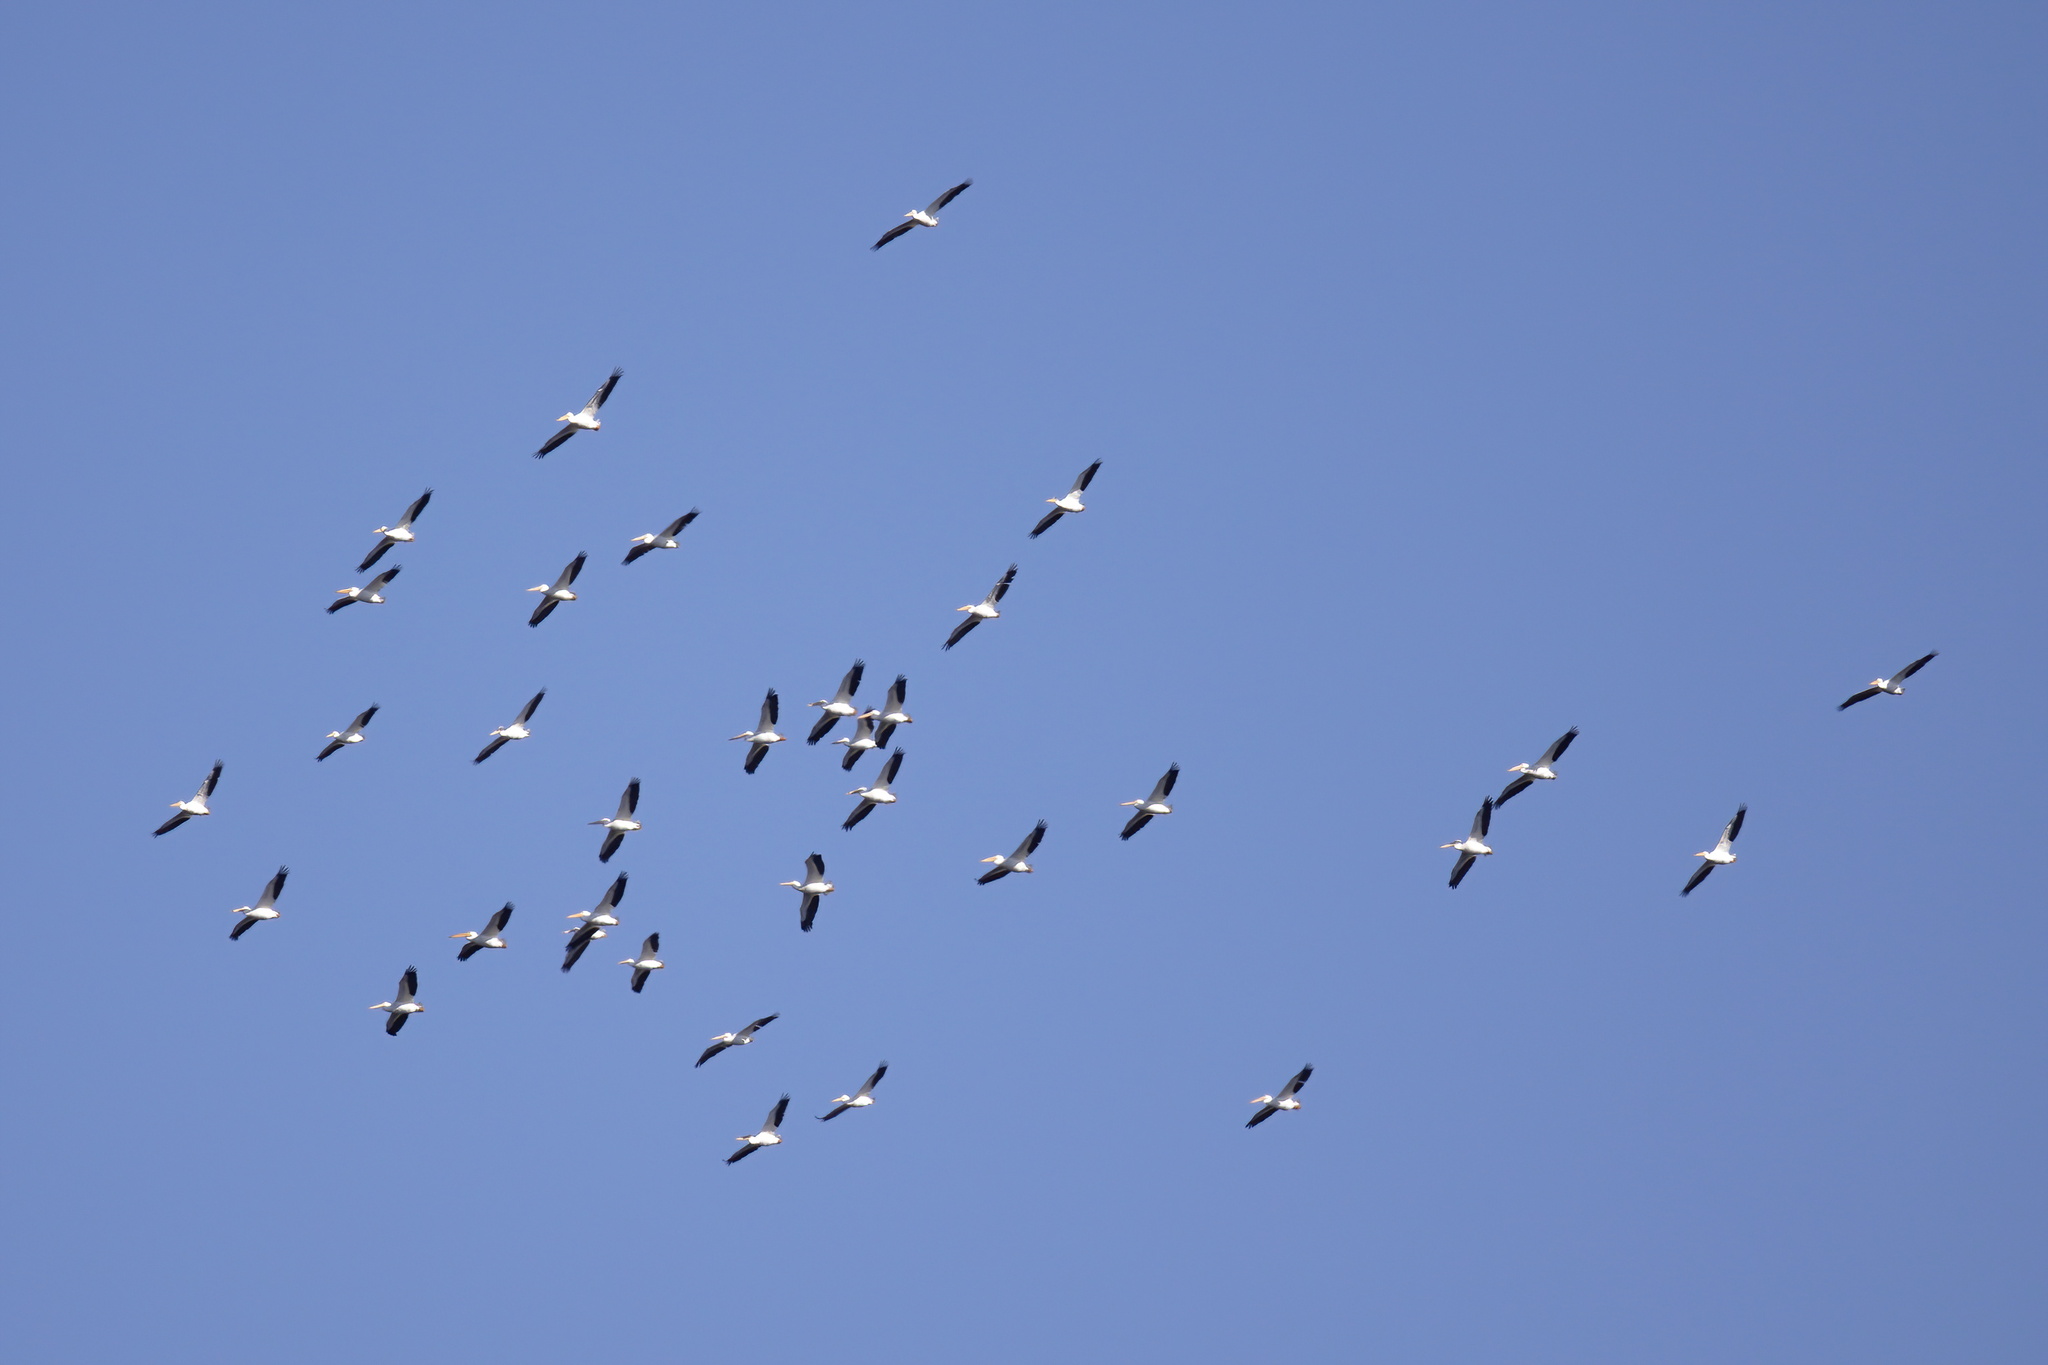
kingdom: Animalia
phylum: Chordata
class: Aves
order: Pelecaniformes
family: Pelecanidae
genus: Pelecanus
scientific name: Pelecanus erythrorhynchos
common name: American white pelican
